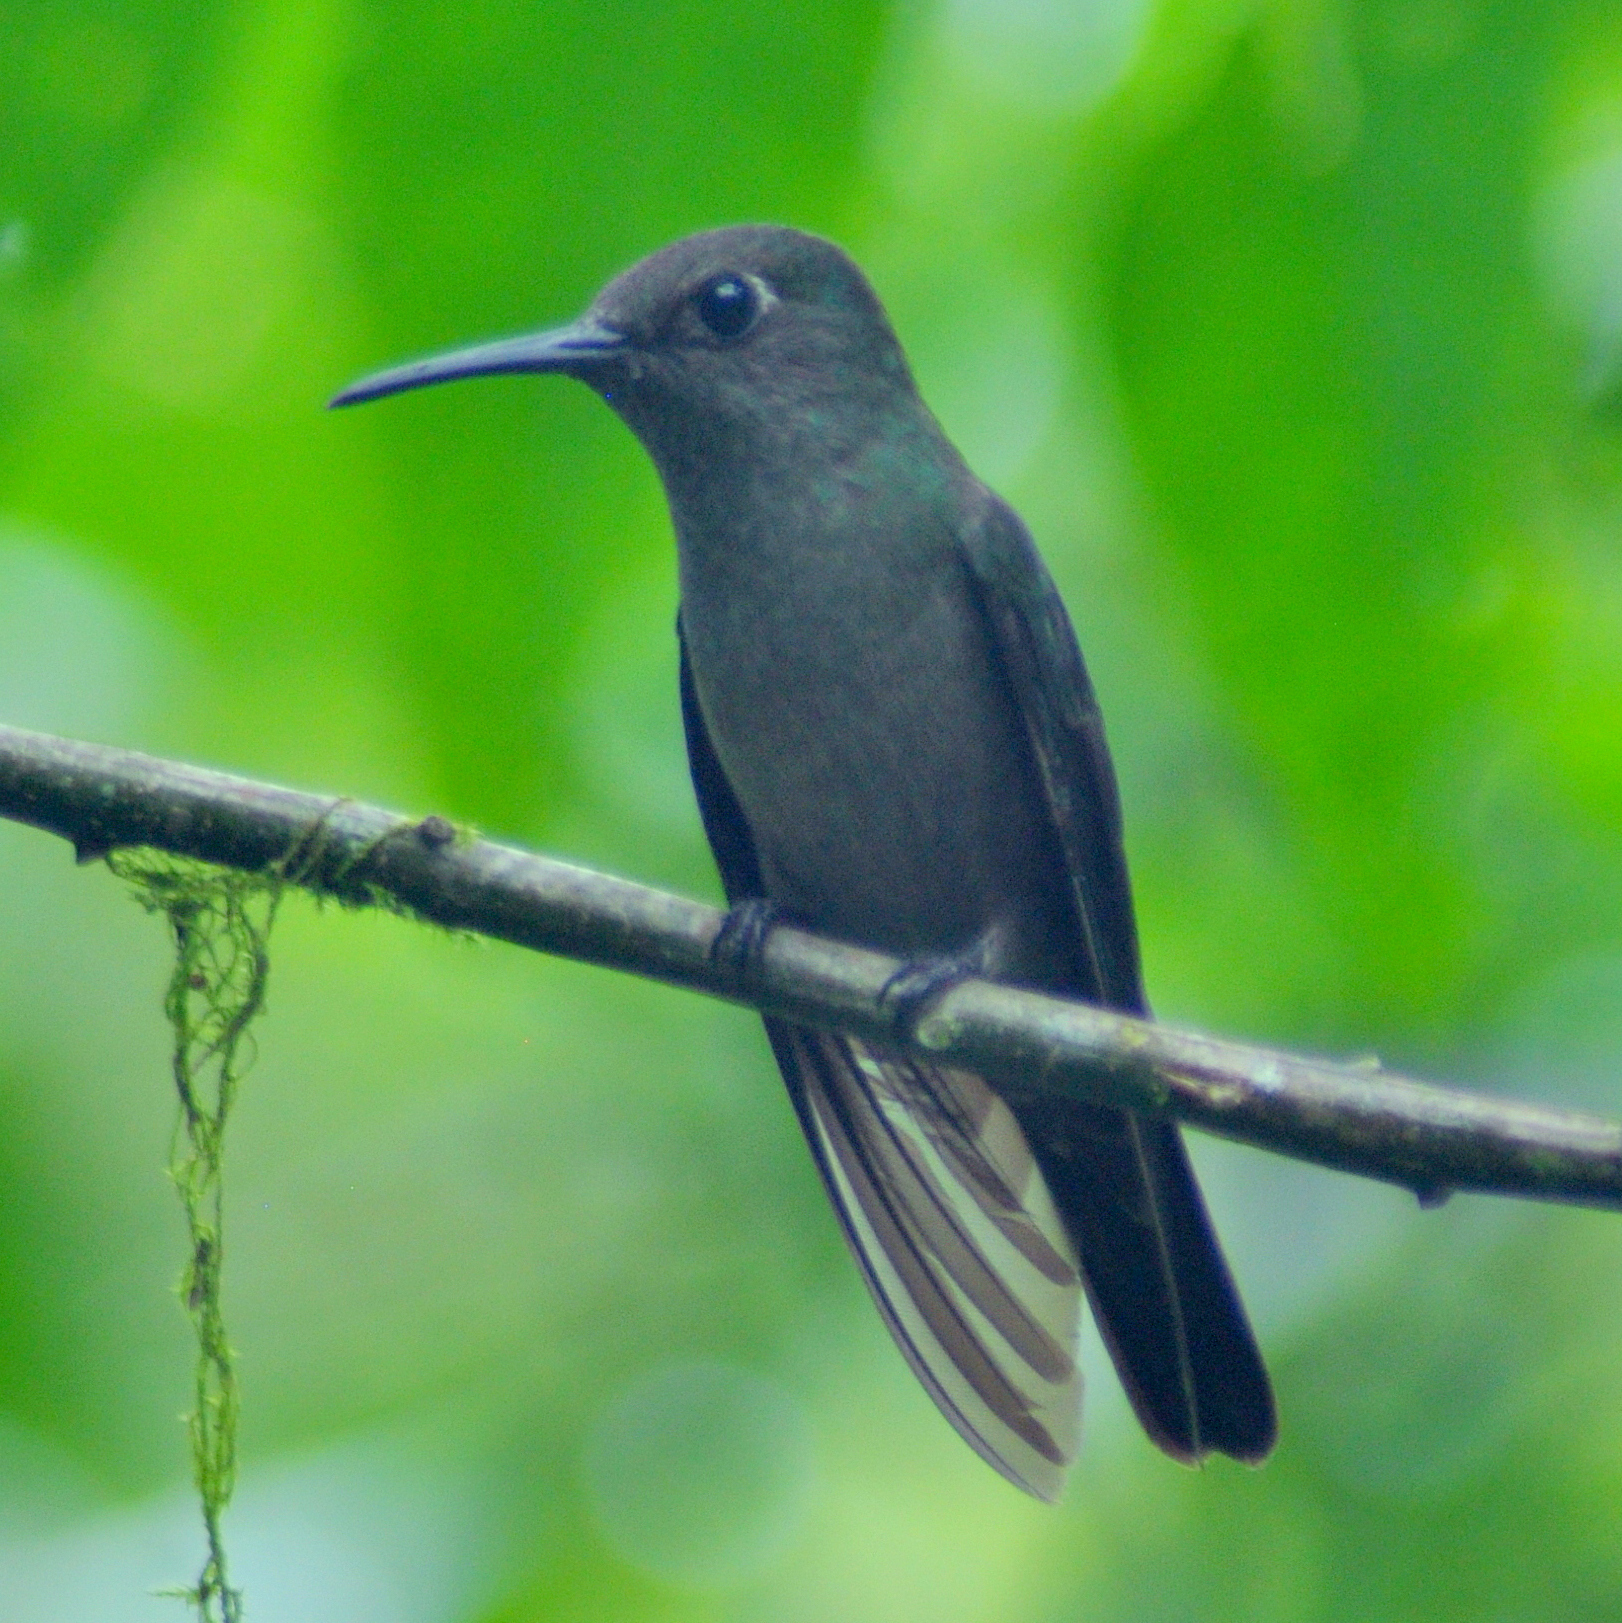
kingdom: Animalia
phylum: Chordata
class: Aves
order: Apodiformes
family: Trochilidae
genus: Eupetomena
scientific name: Eupetomena cirrochloris
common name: Sombre hummingbird
